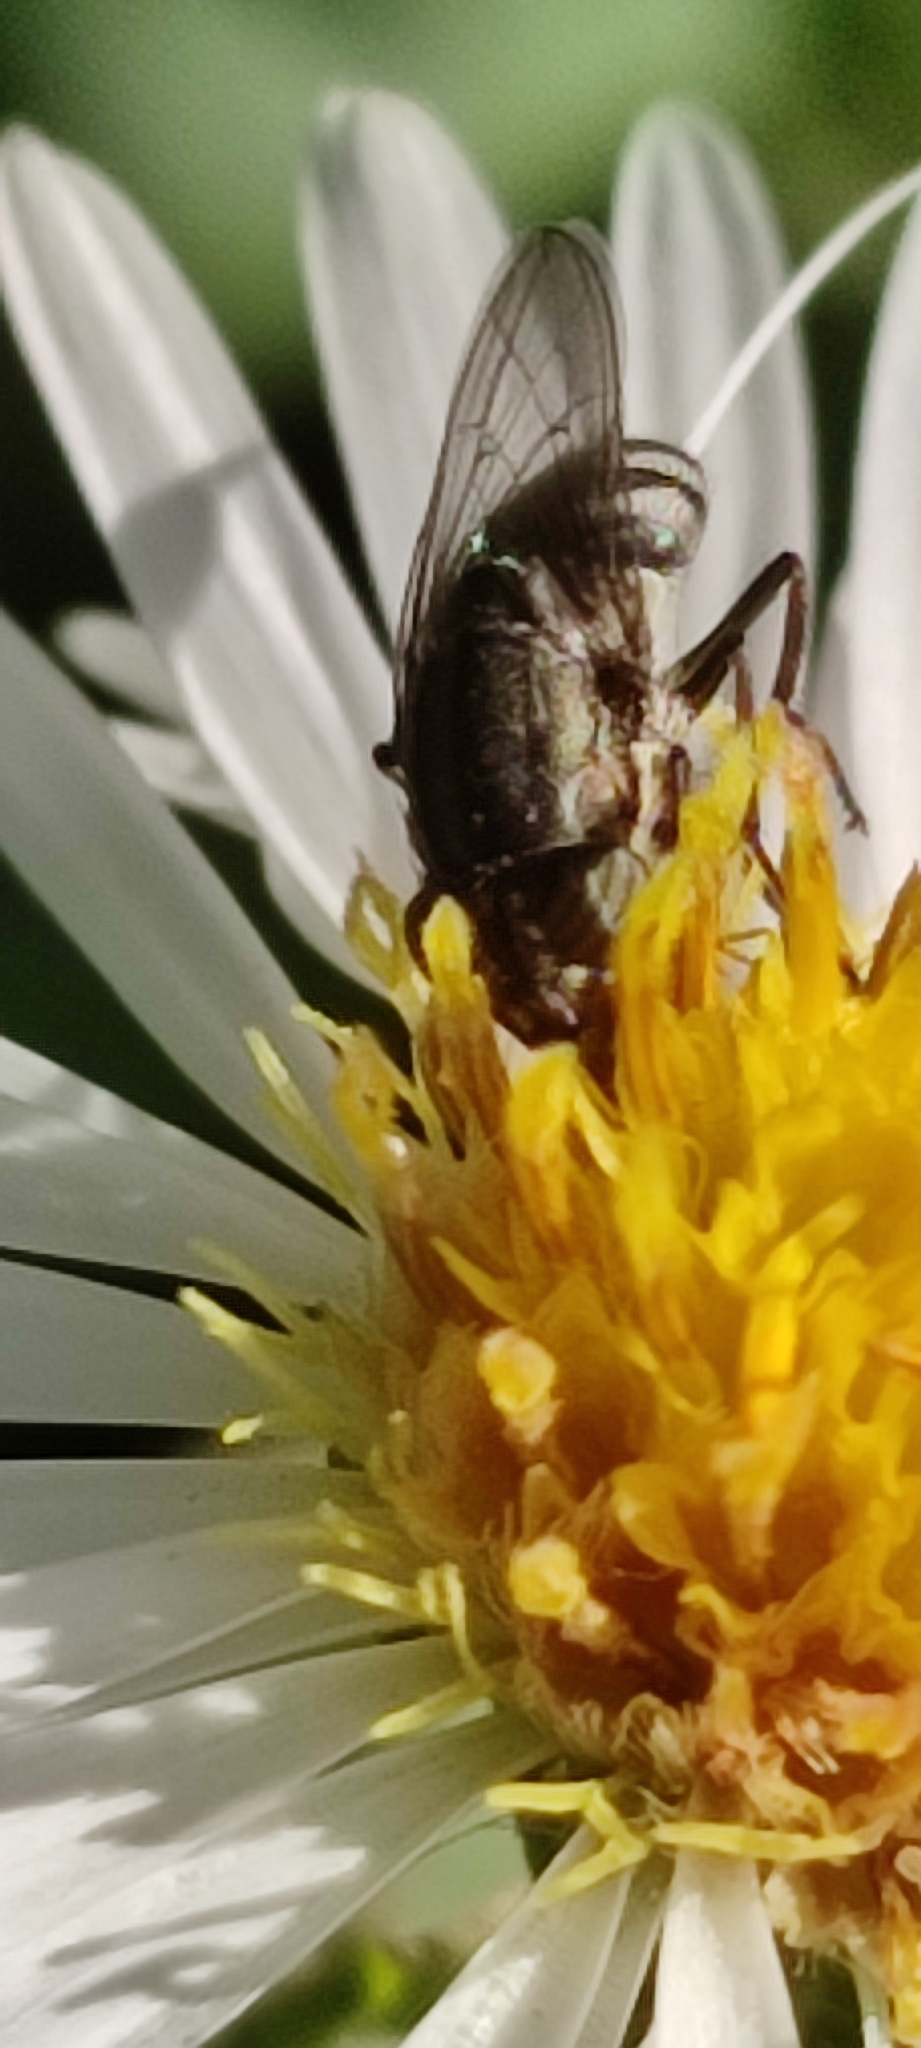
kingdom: Animalia
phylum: Arthropoda
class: Insecta
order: Diptera
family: Calliphoridae
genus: Stomorhina
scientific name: Stomorhina lunata
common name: Locust blowfly
